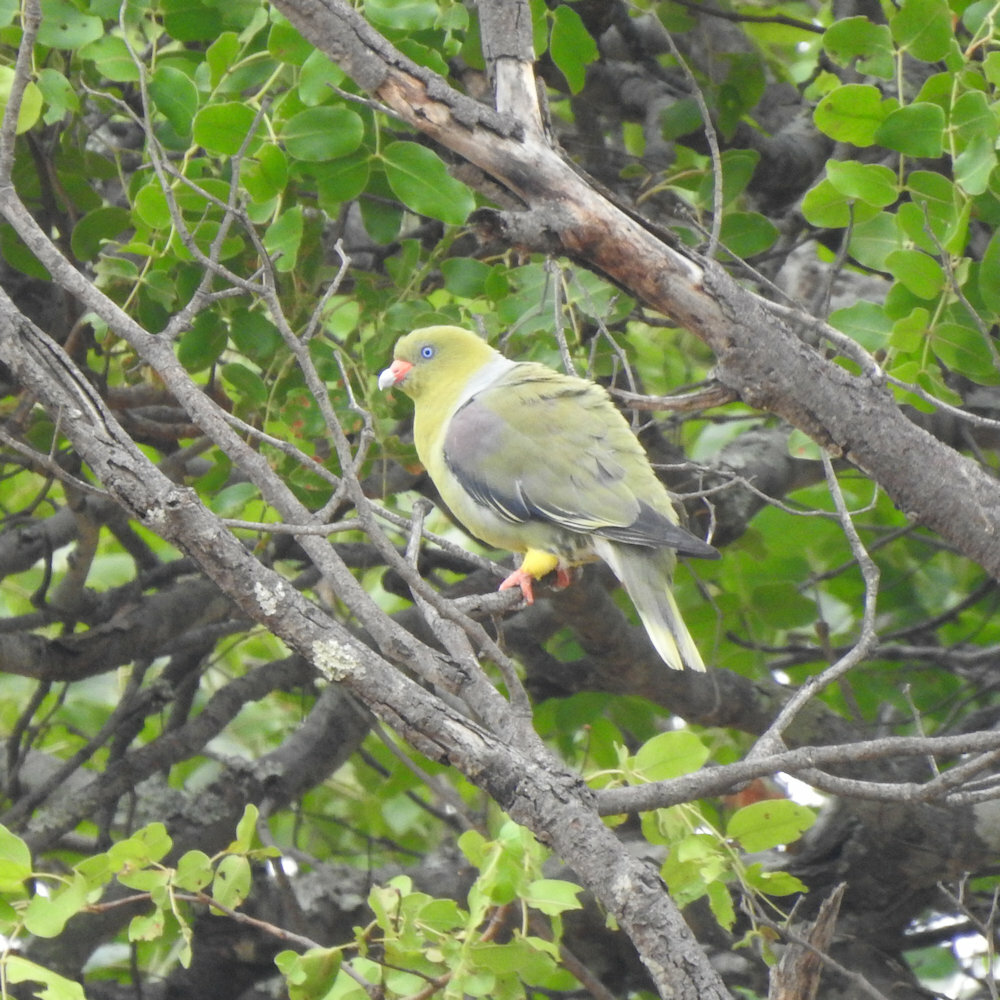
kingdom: Animalia
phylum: Chordata
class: Aves
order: Columbiformes
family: Columbidae
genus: Treron
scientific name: Treron calvus
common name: African green pigeon
